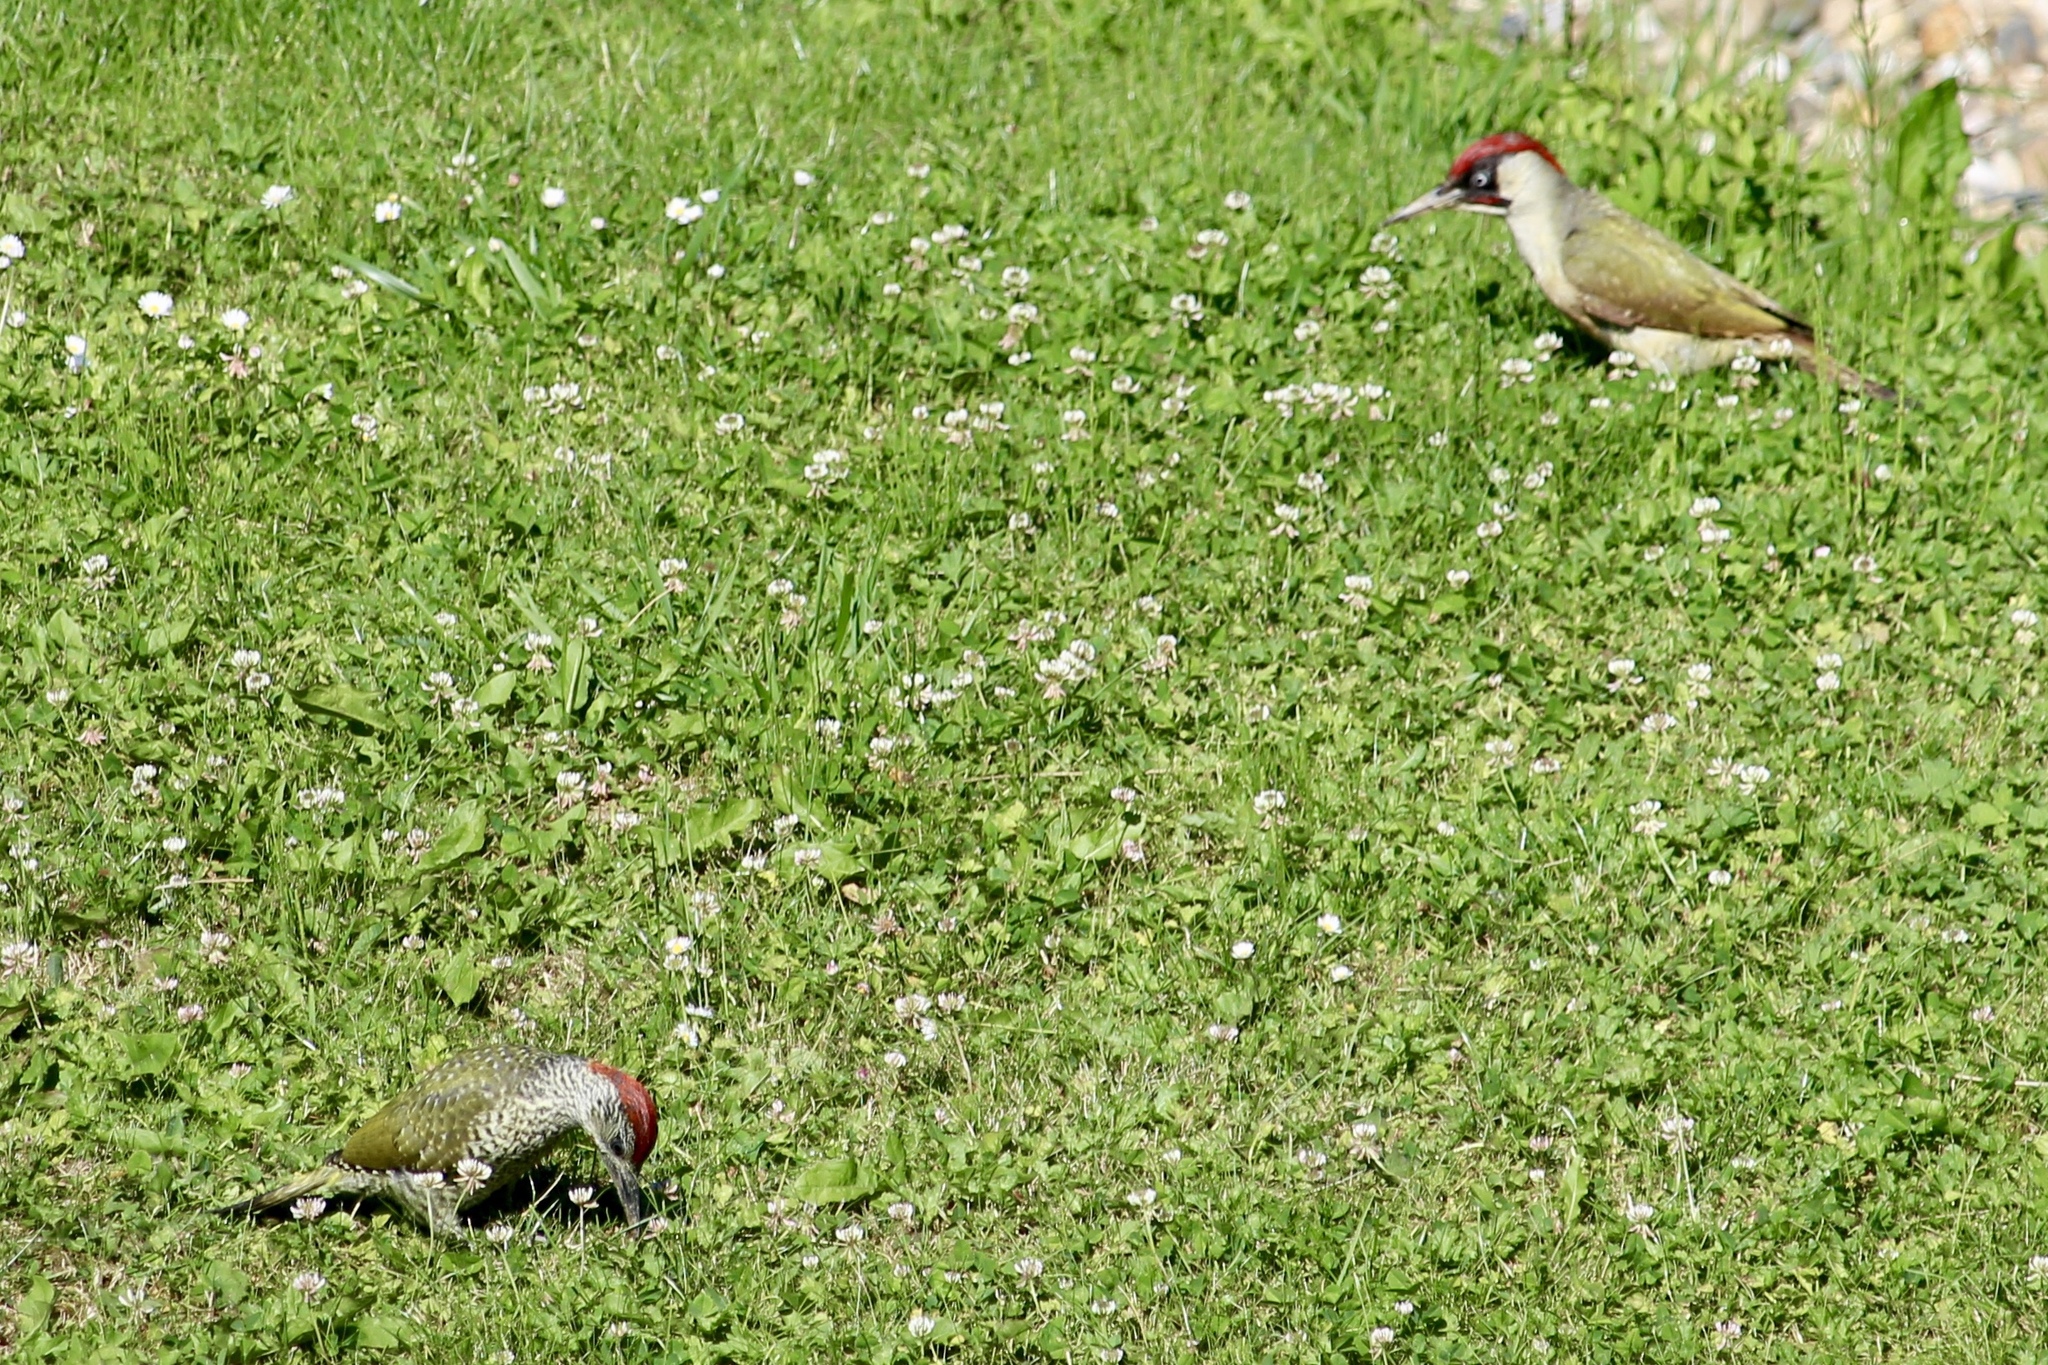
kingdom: Animalia
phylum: Chordata
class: Aves
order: Piciformes
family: Picidae
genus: Picus
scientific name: Picus viridis
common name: European green woodpecker
